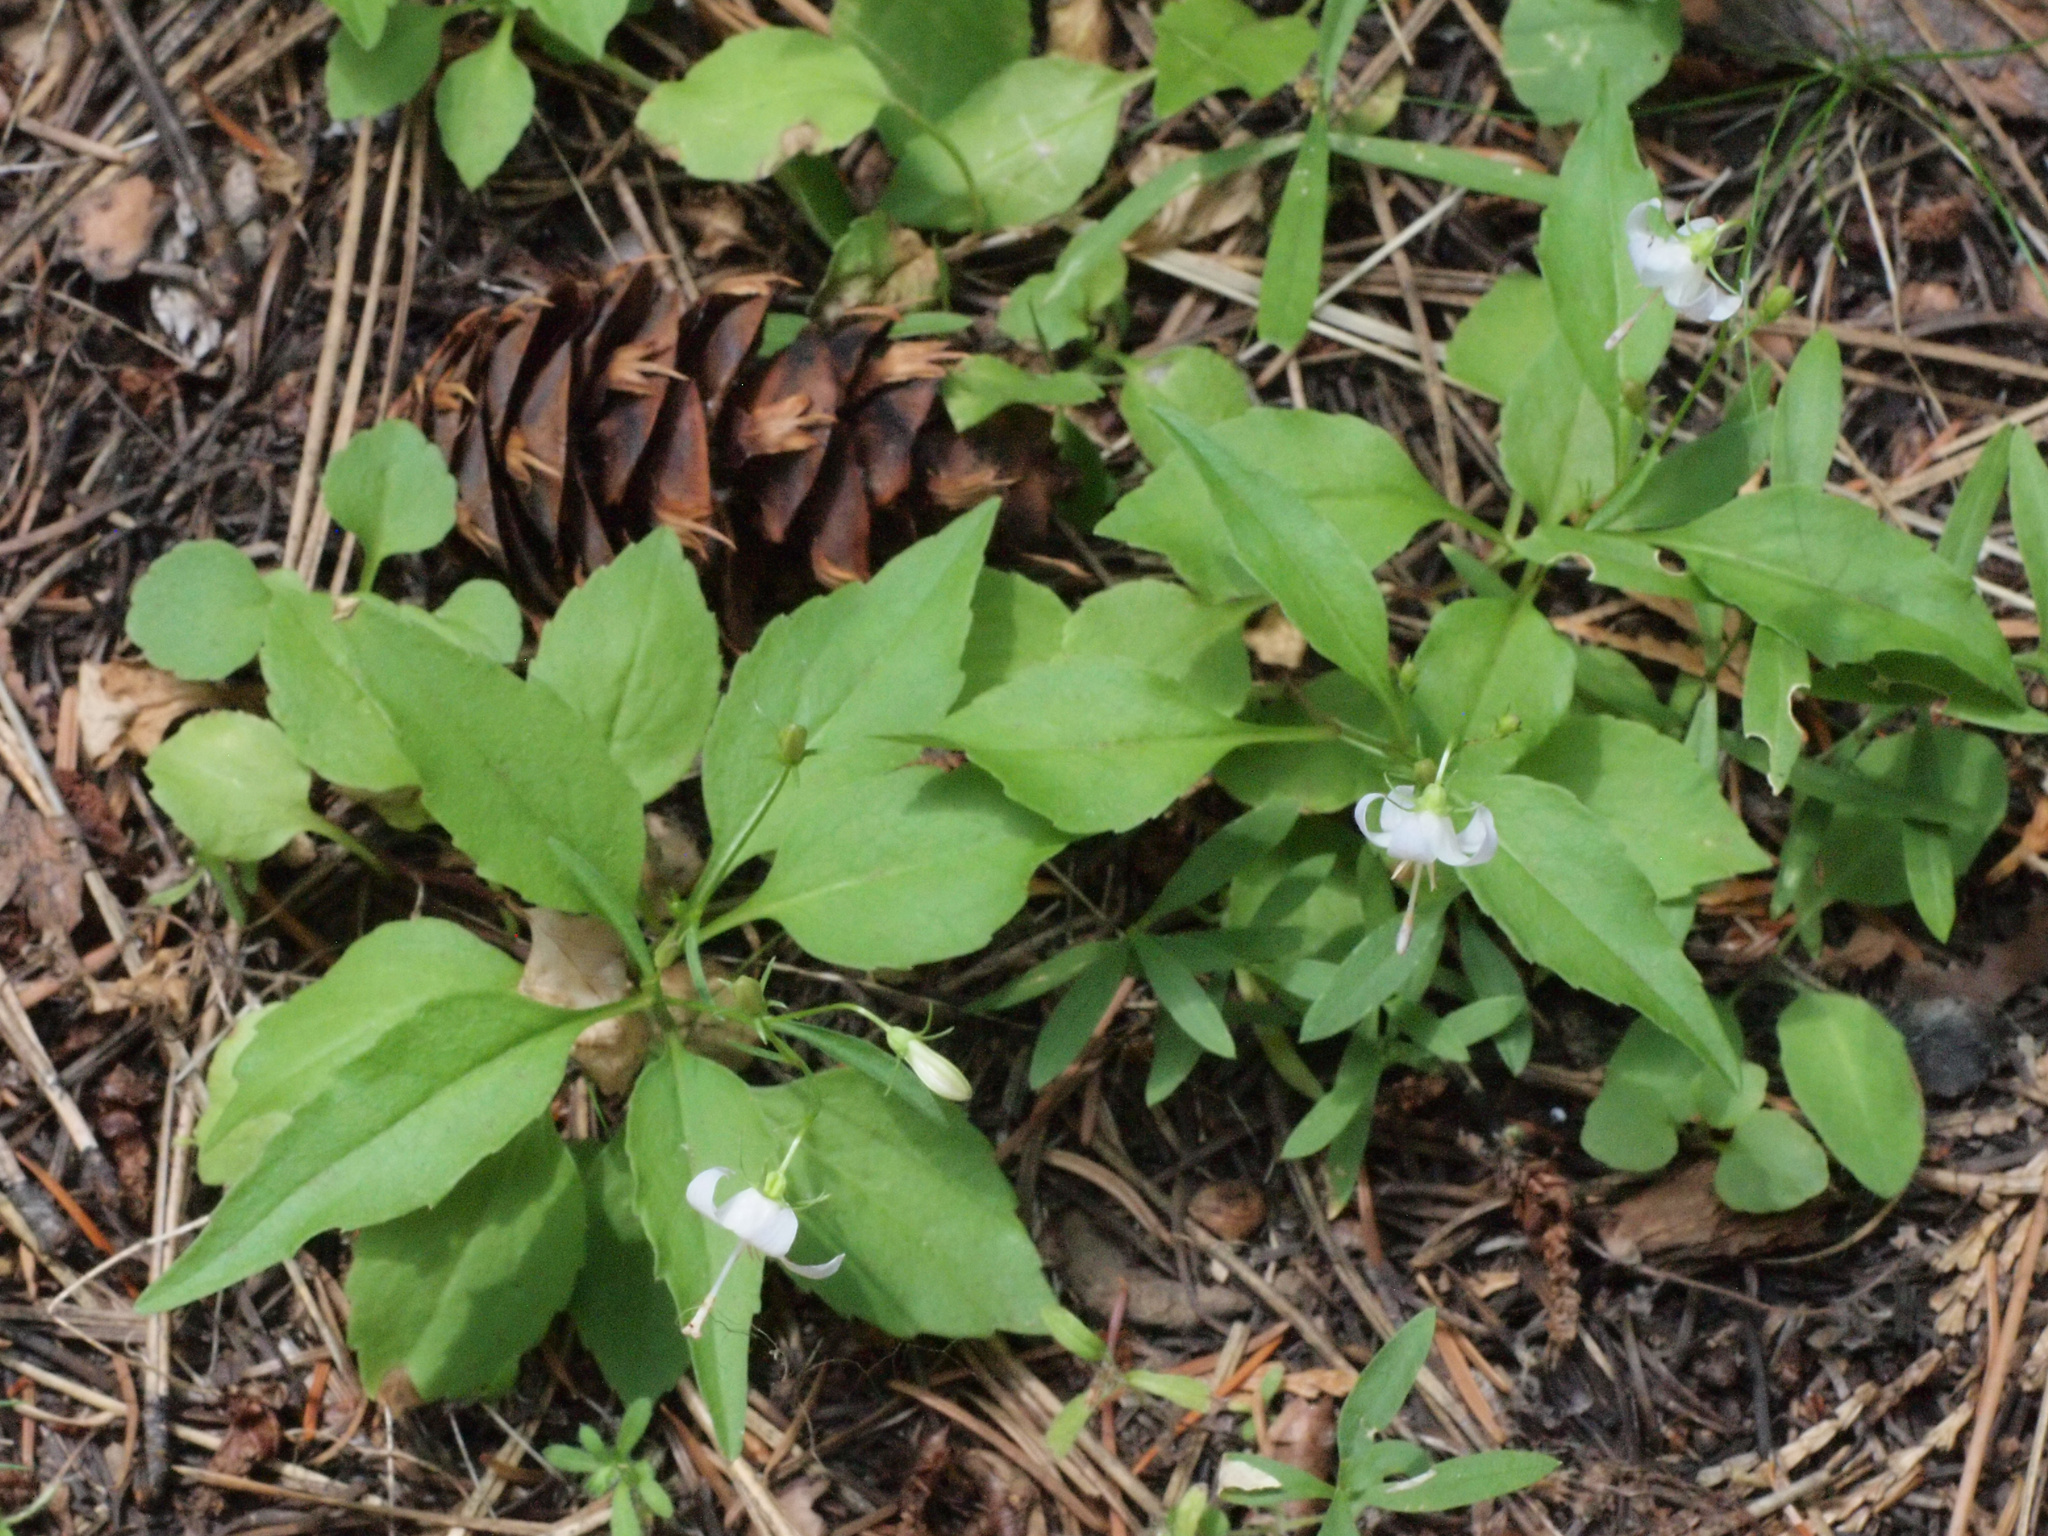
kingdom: Plantae
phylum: Tracheophyta
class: Magnoliopsida
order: Asterales
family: Campanulaceae
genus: Campanula
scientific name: Campanula scouleri
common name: Scouler's harebell
